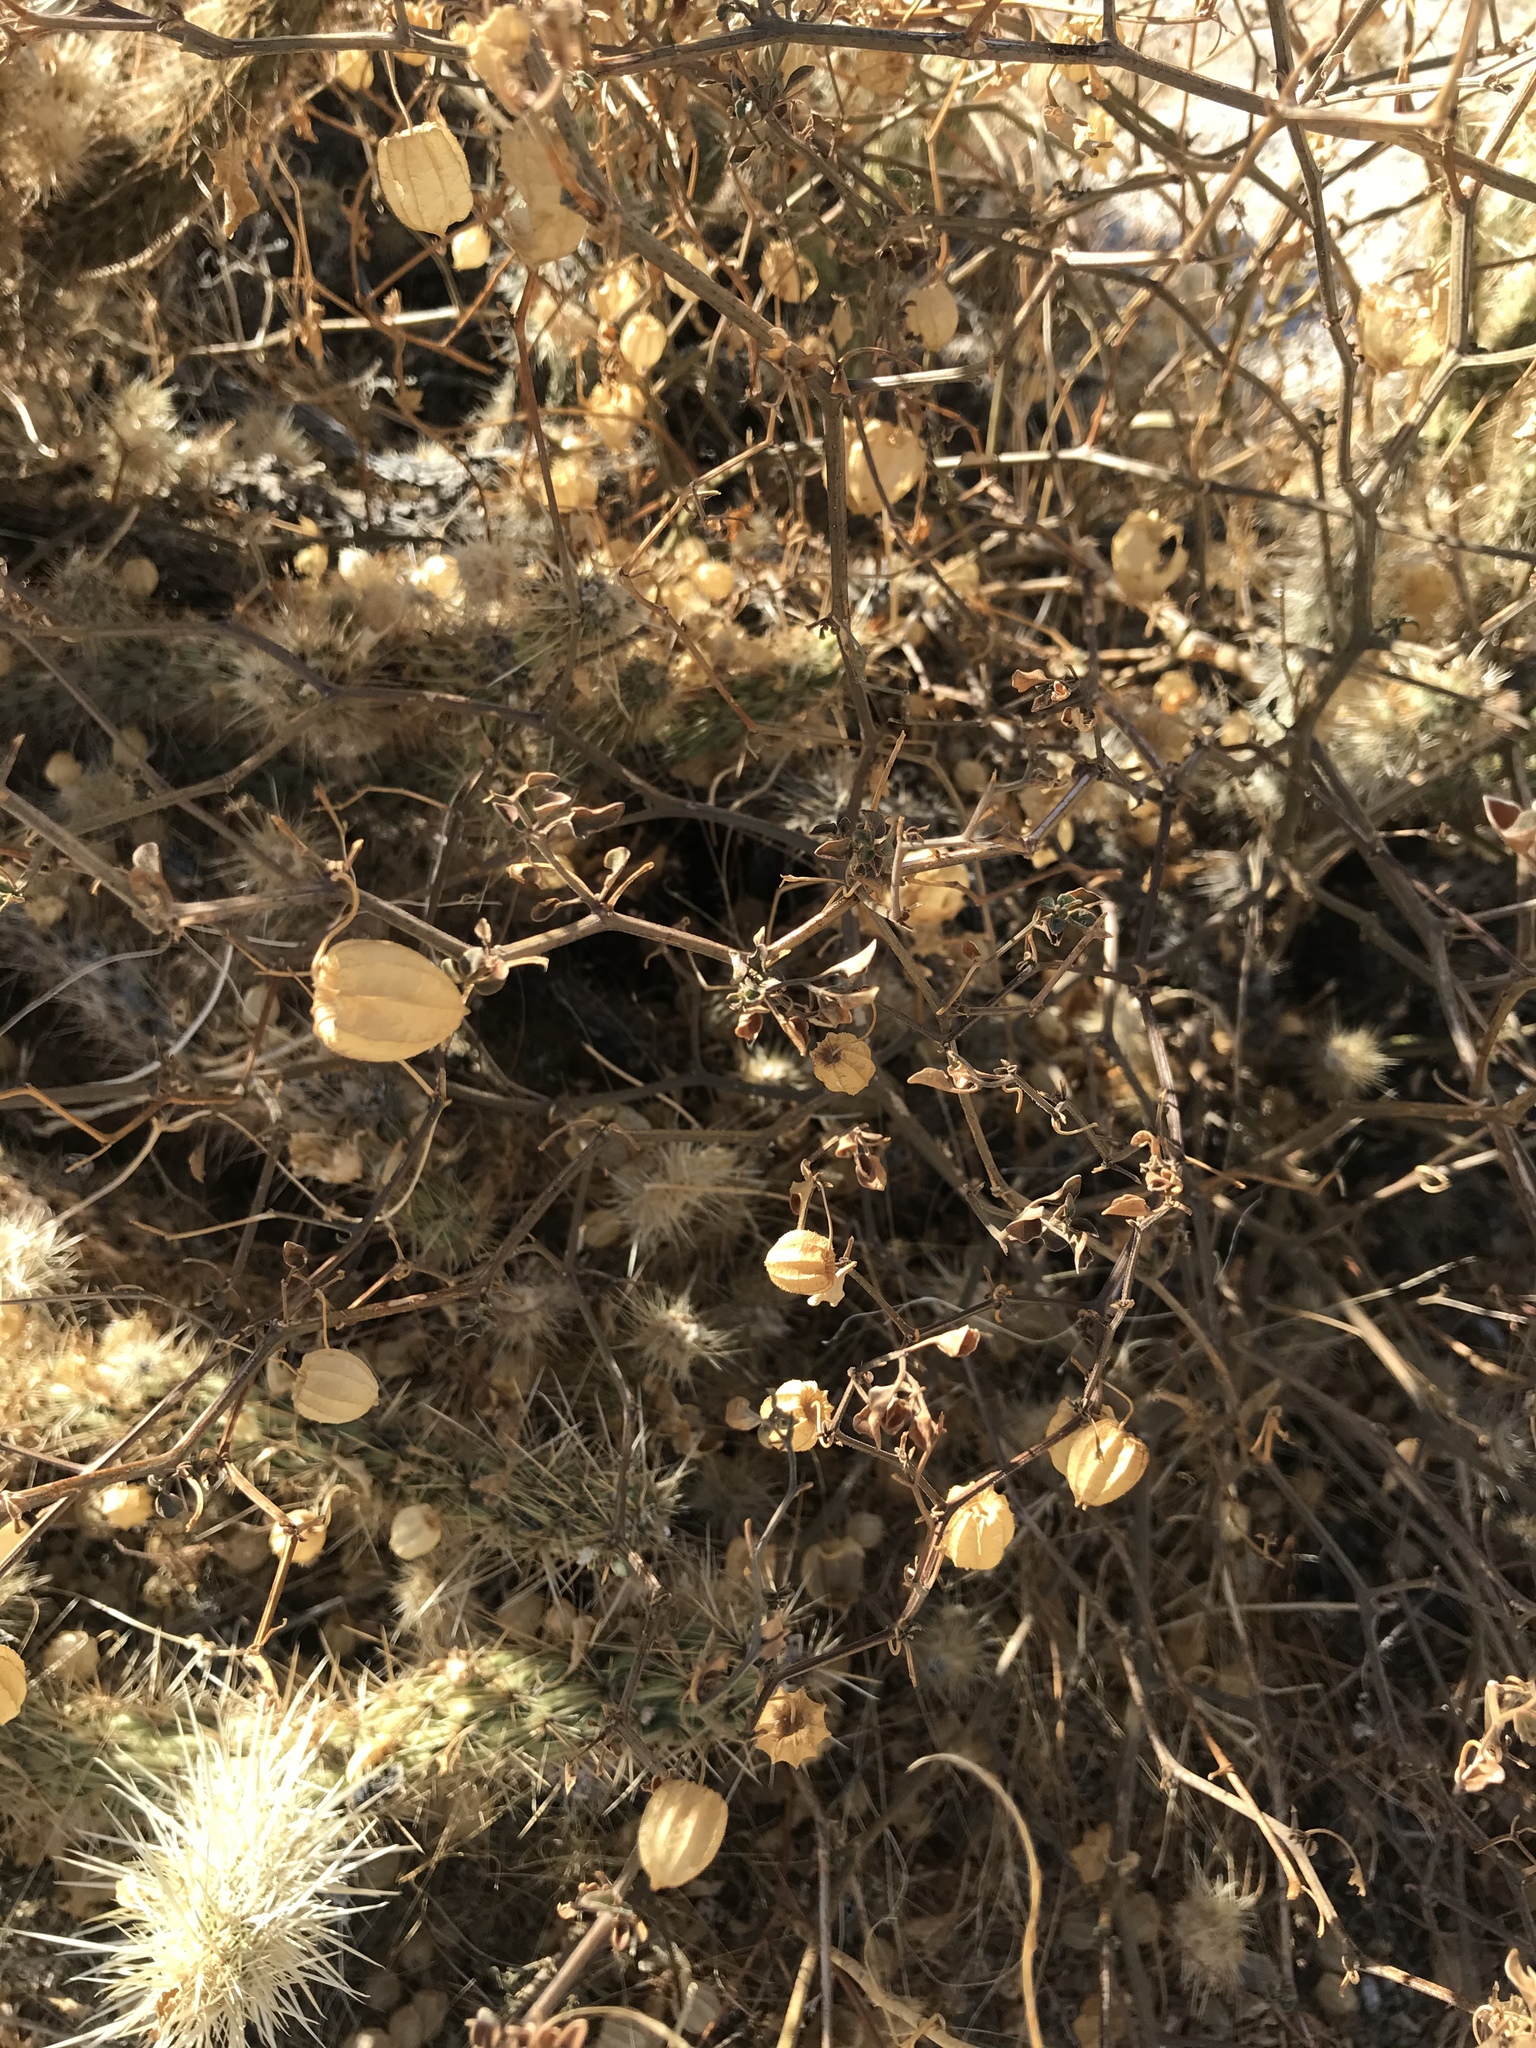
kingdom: Plantae
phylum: Tracheophyta
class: Magnoliopsida
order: Solanales
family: Solanaceae
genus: Physalis
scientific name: Physalis crassifolia
